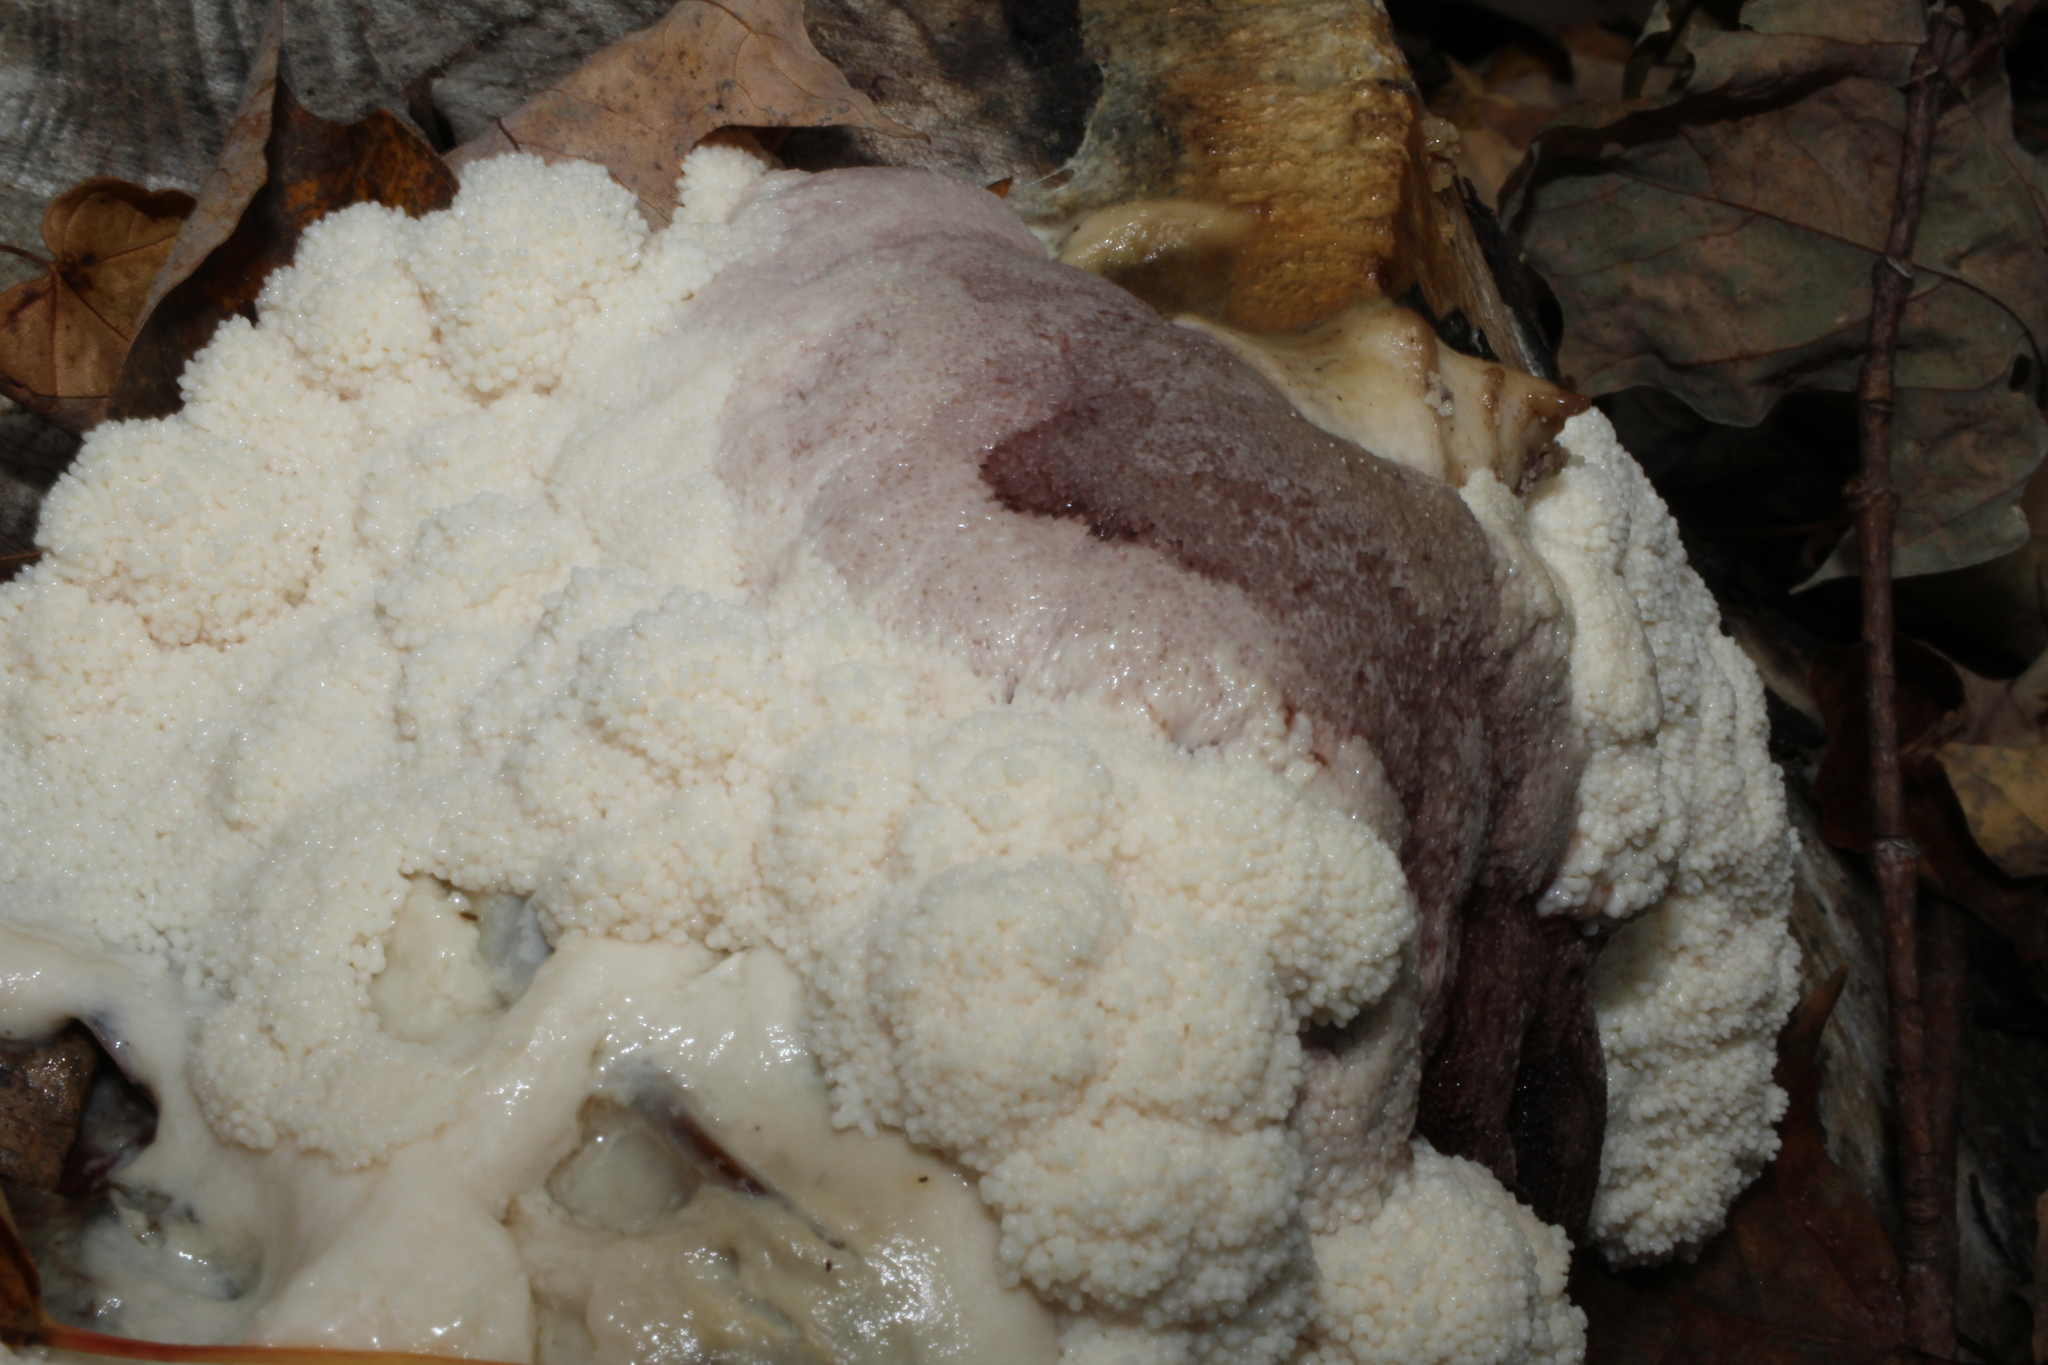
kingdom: Protozoa
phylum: Mycetozoa
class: Myxomycetes
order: Stemonitidales
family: Stemonitidaceae
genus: Brefeldia
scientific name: Brefeldia maxima
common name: Tapioca slime mold
